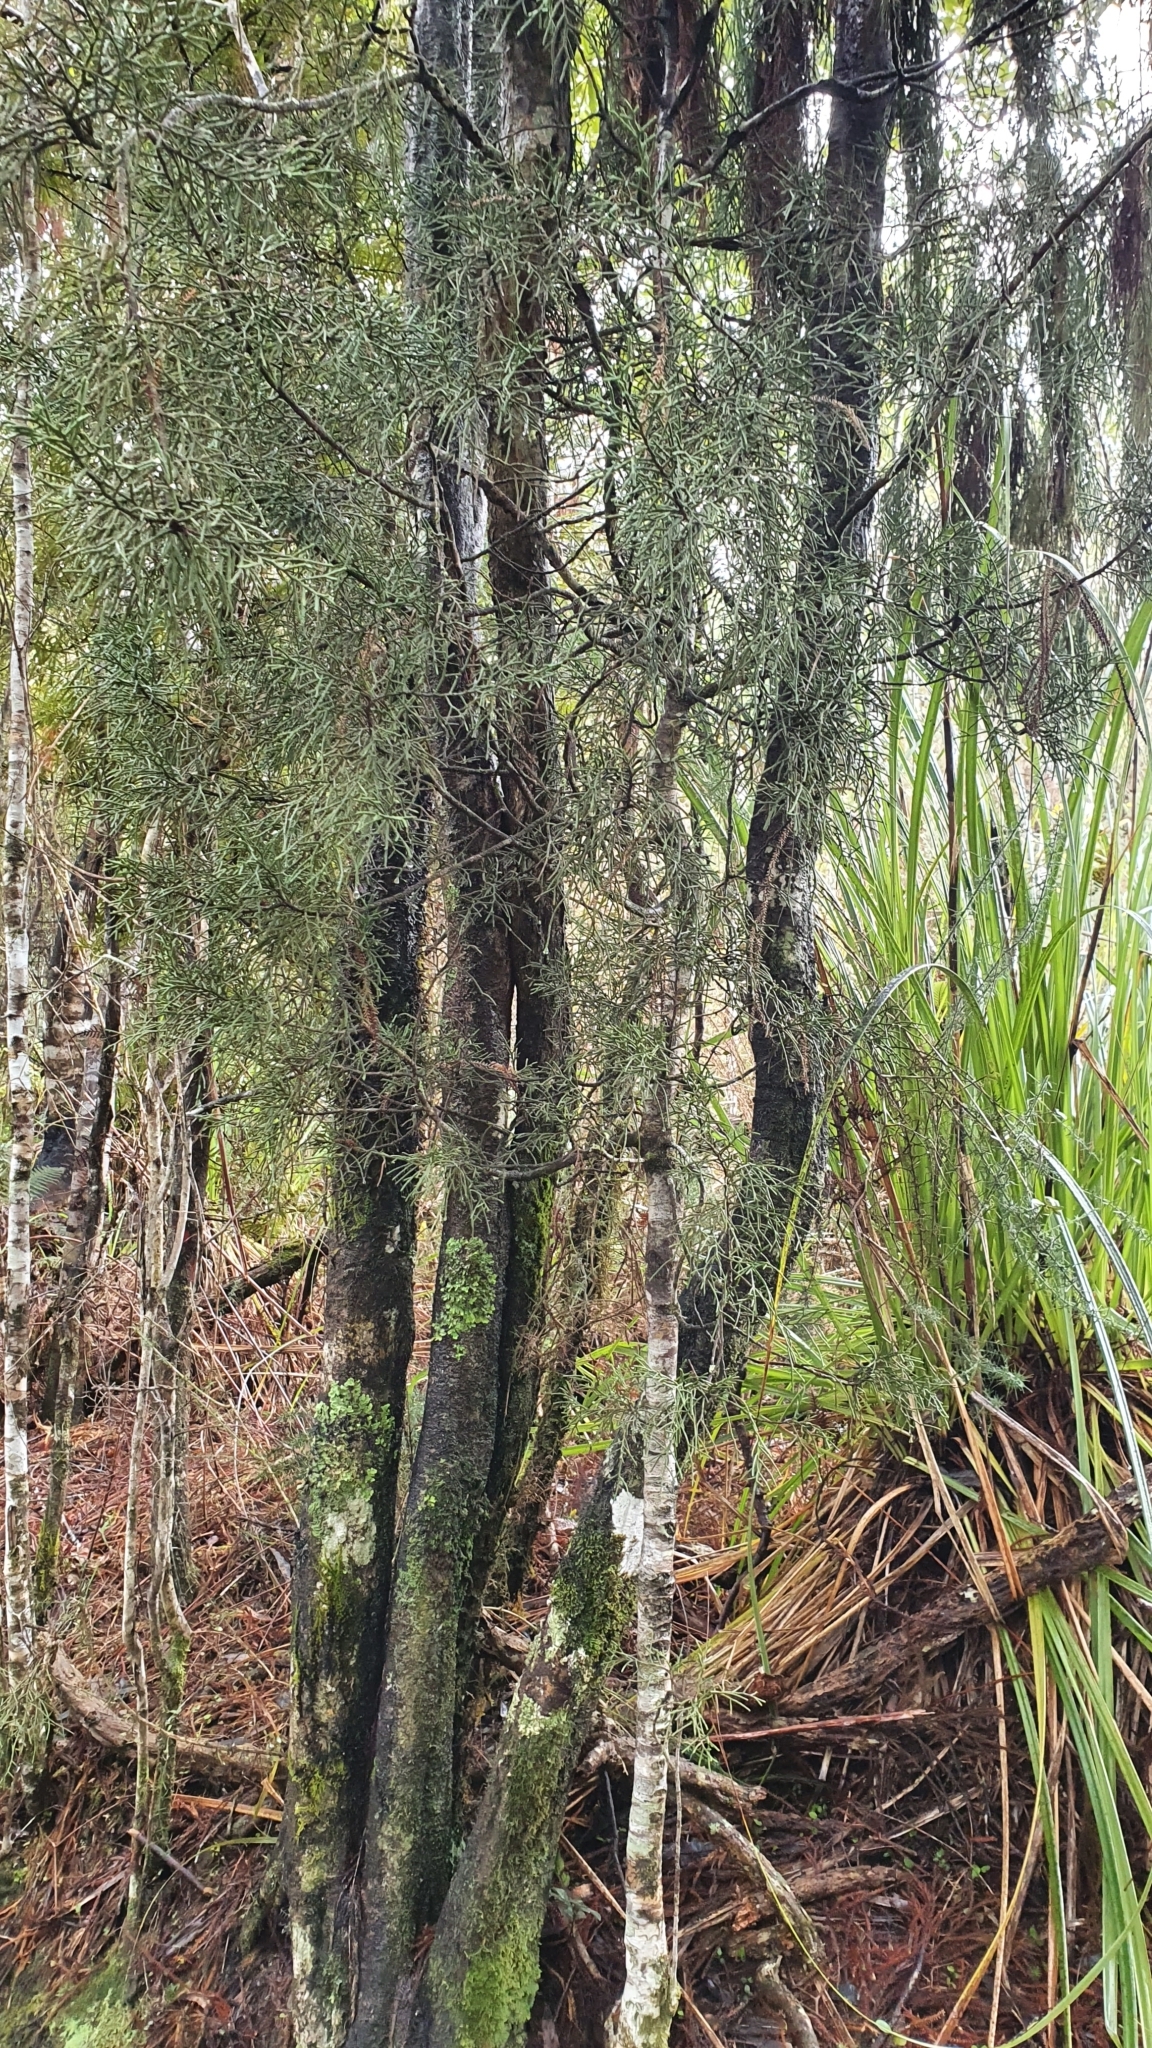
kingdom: Plantae
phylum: Tracheophyta
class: Pinopsida
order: Pinales
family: Podocarpaceae
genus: Manoao
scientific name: Manoao colensoi
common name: Silver pine
